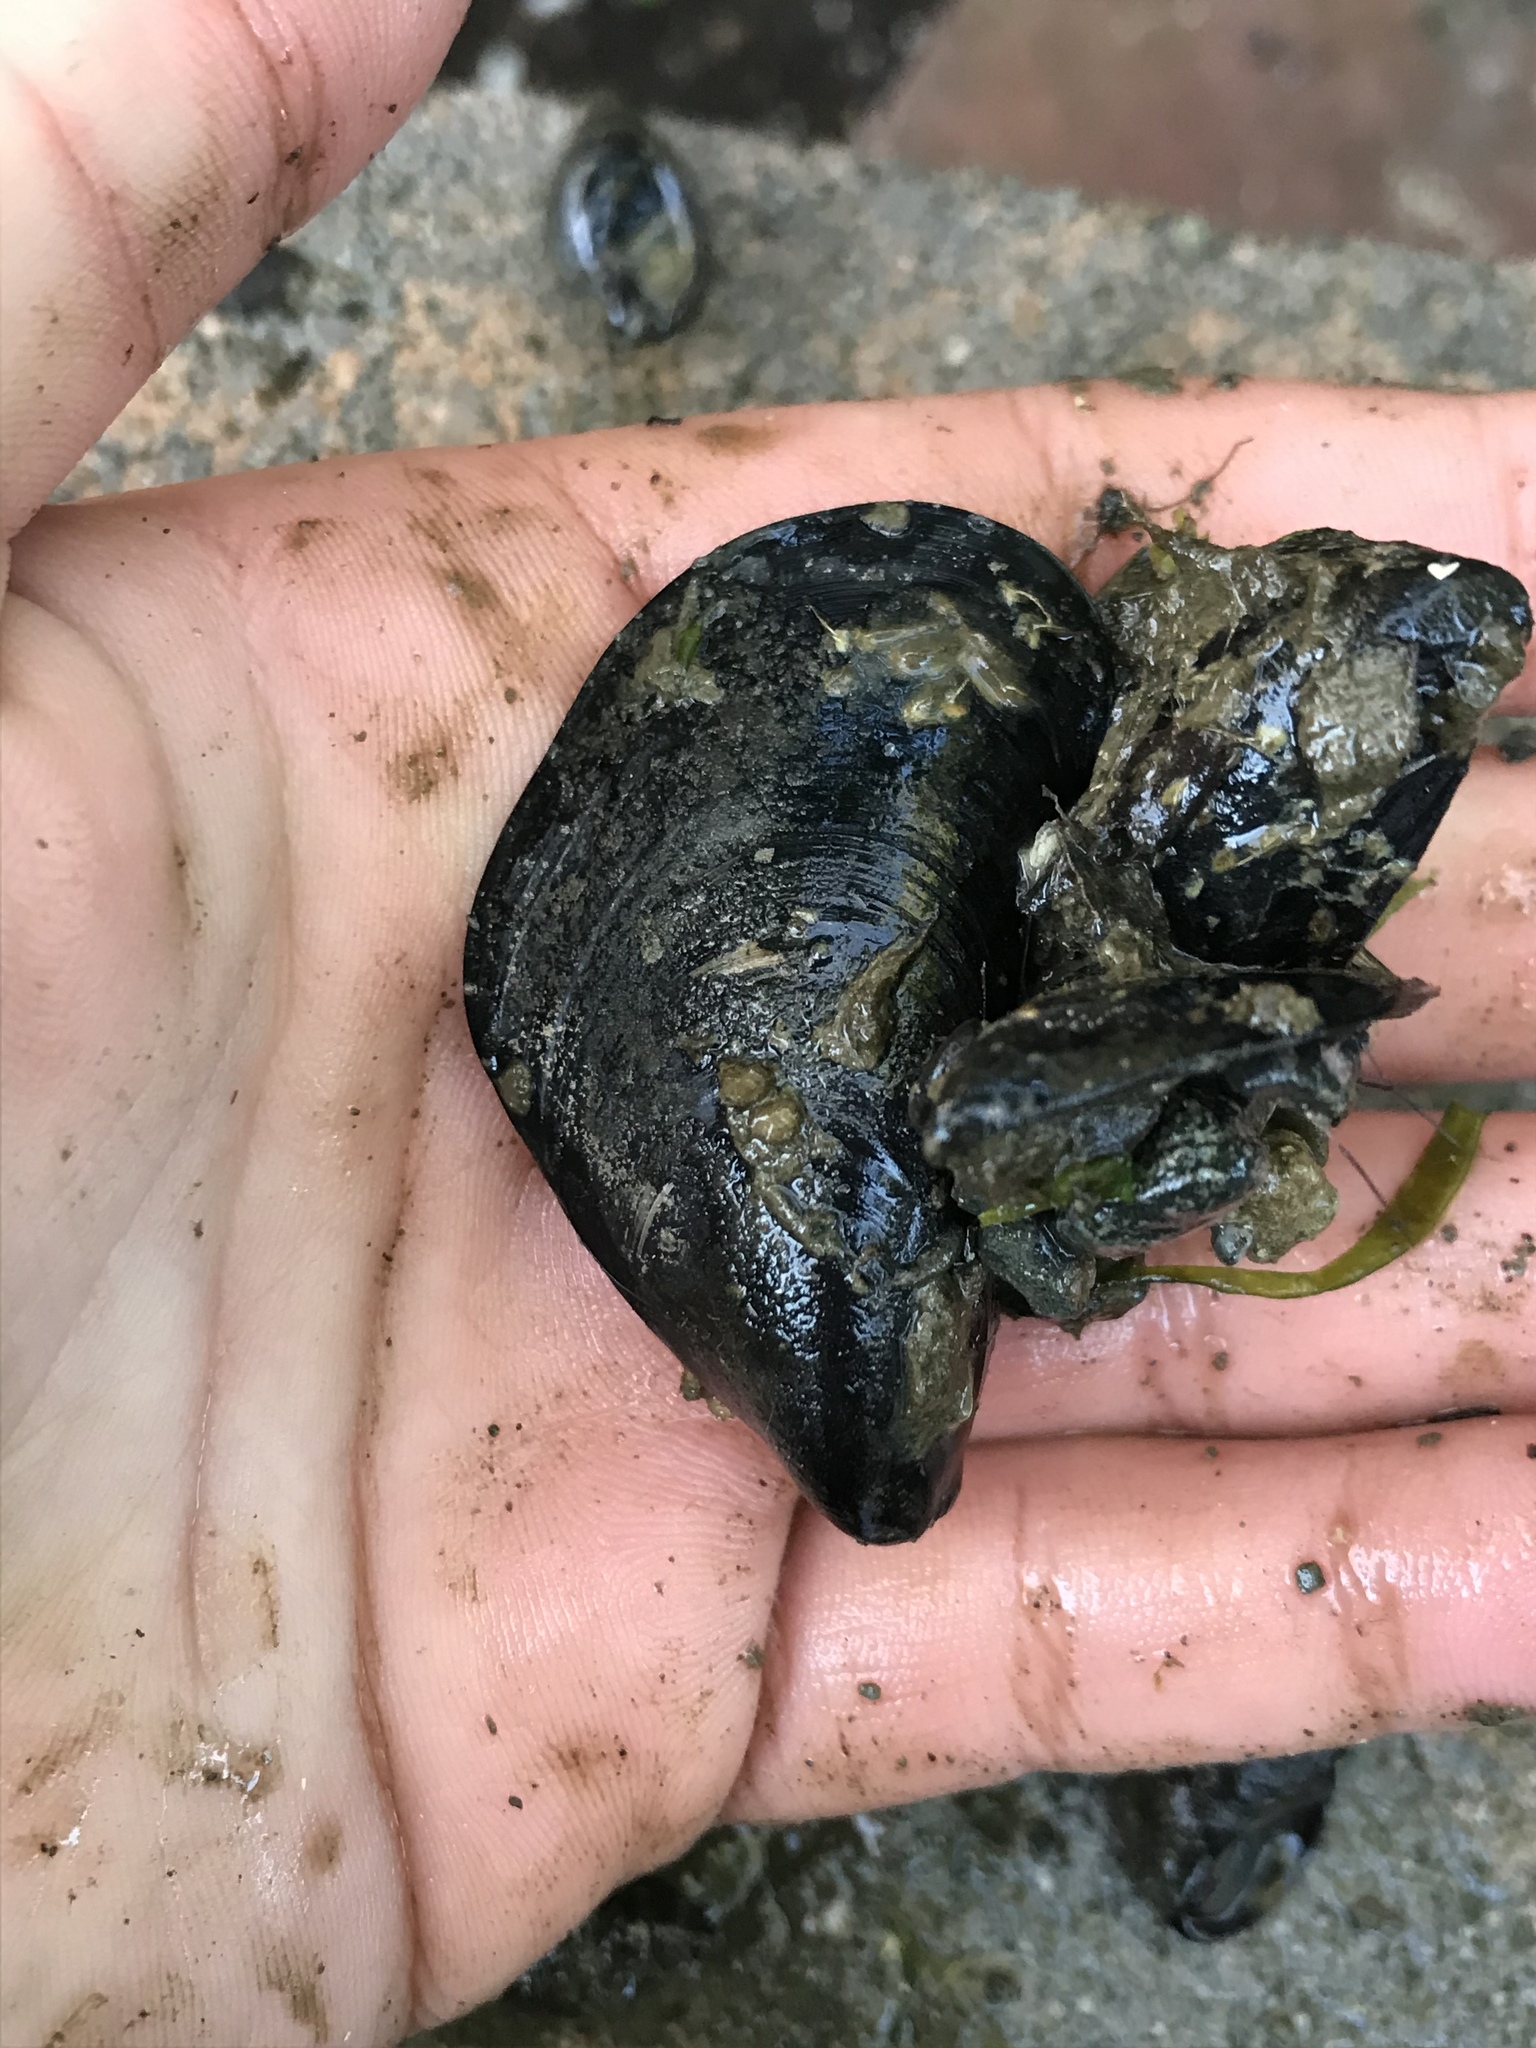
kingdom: Animalia
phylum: Mollusca
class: Bivalvia
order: Mytilida
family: Mytilidae
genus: Mytilus
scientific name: Mytilus
